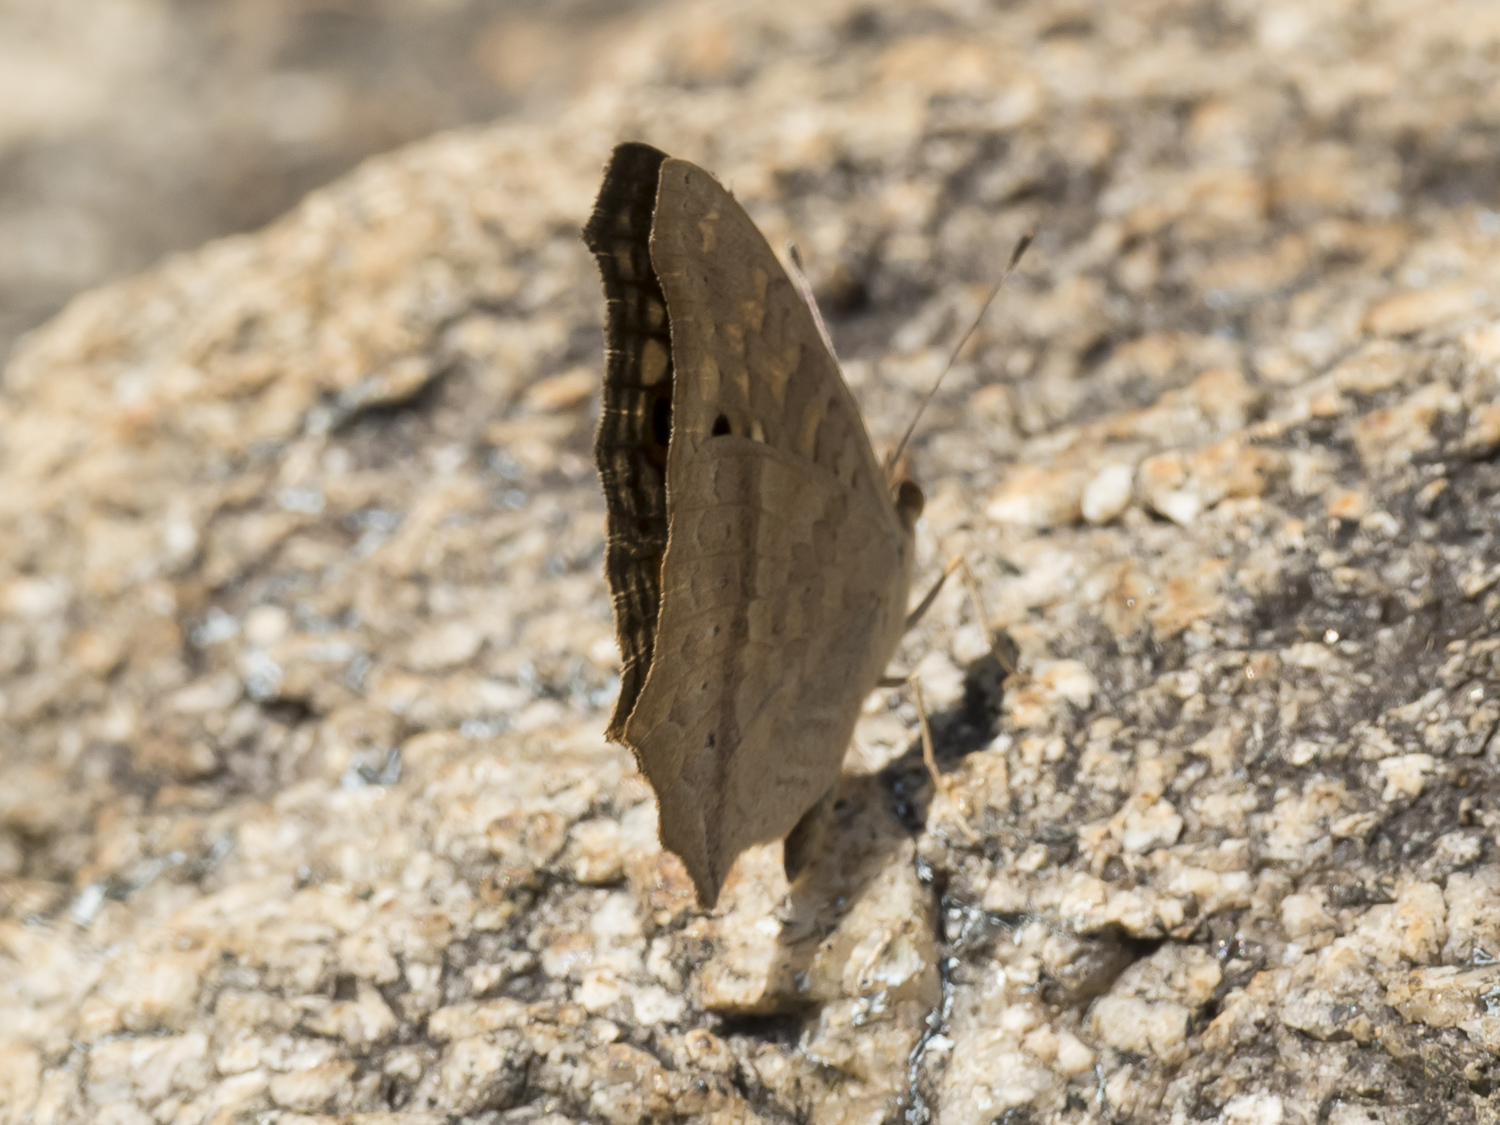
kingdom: Animalia
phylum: Arthropoda
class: Insecta
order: Lepidoptera
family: Nymphalidae
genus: Junonia
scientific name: Junonia lemonias
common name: Lemon pansy
